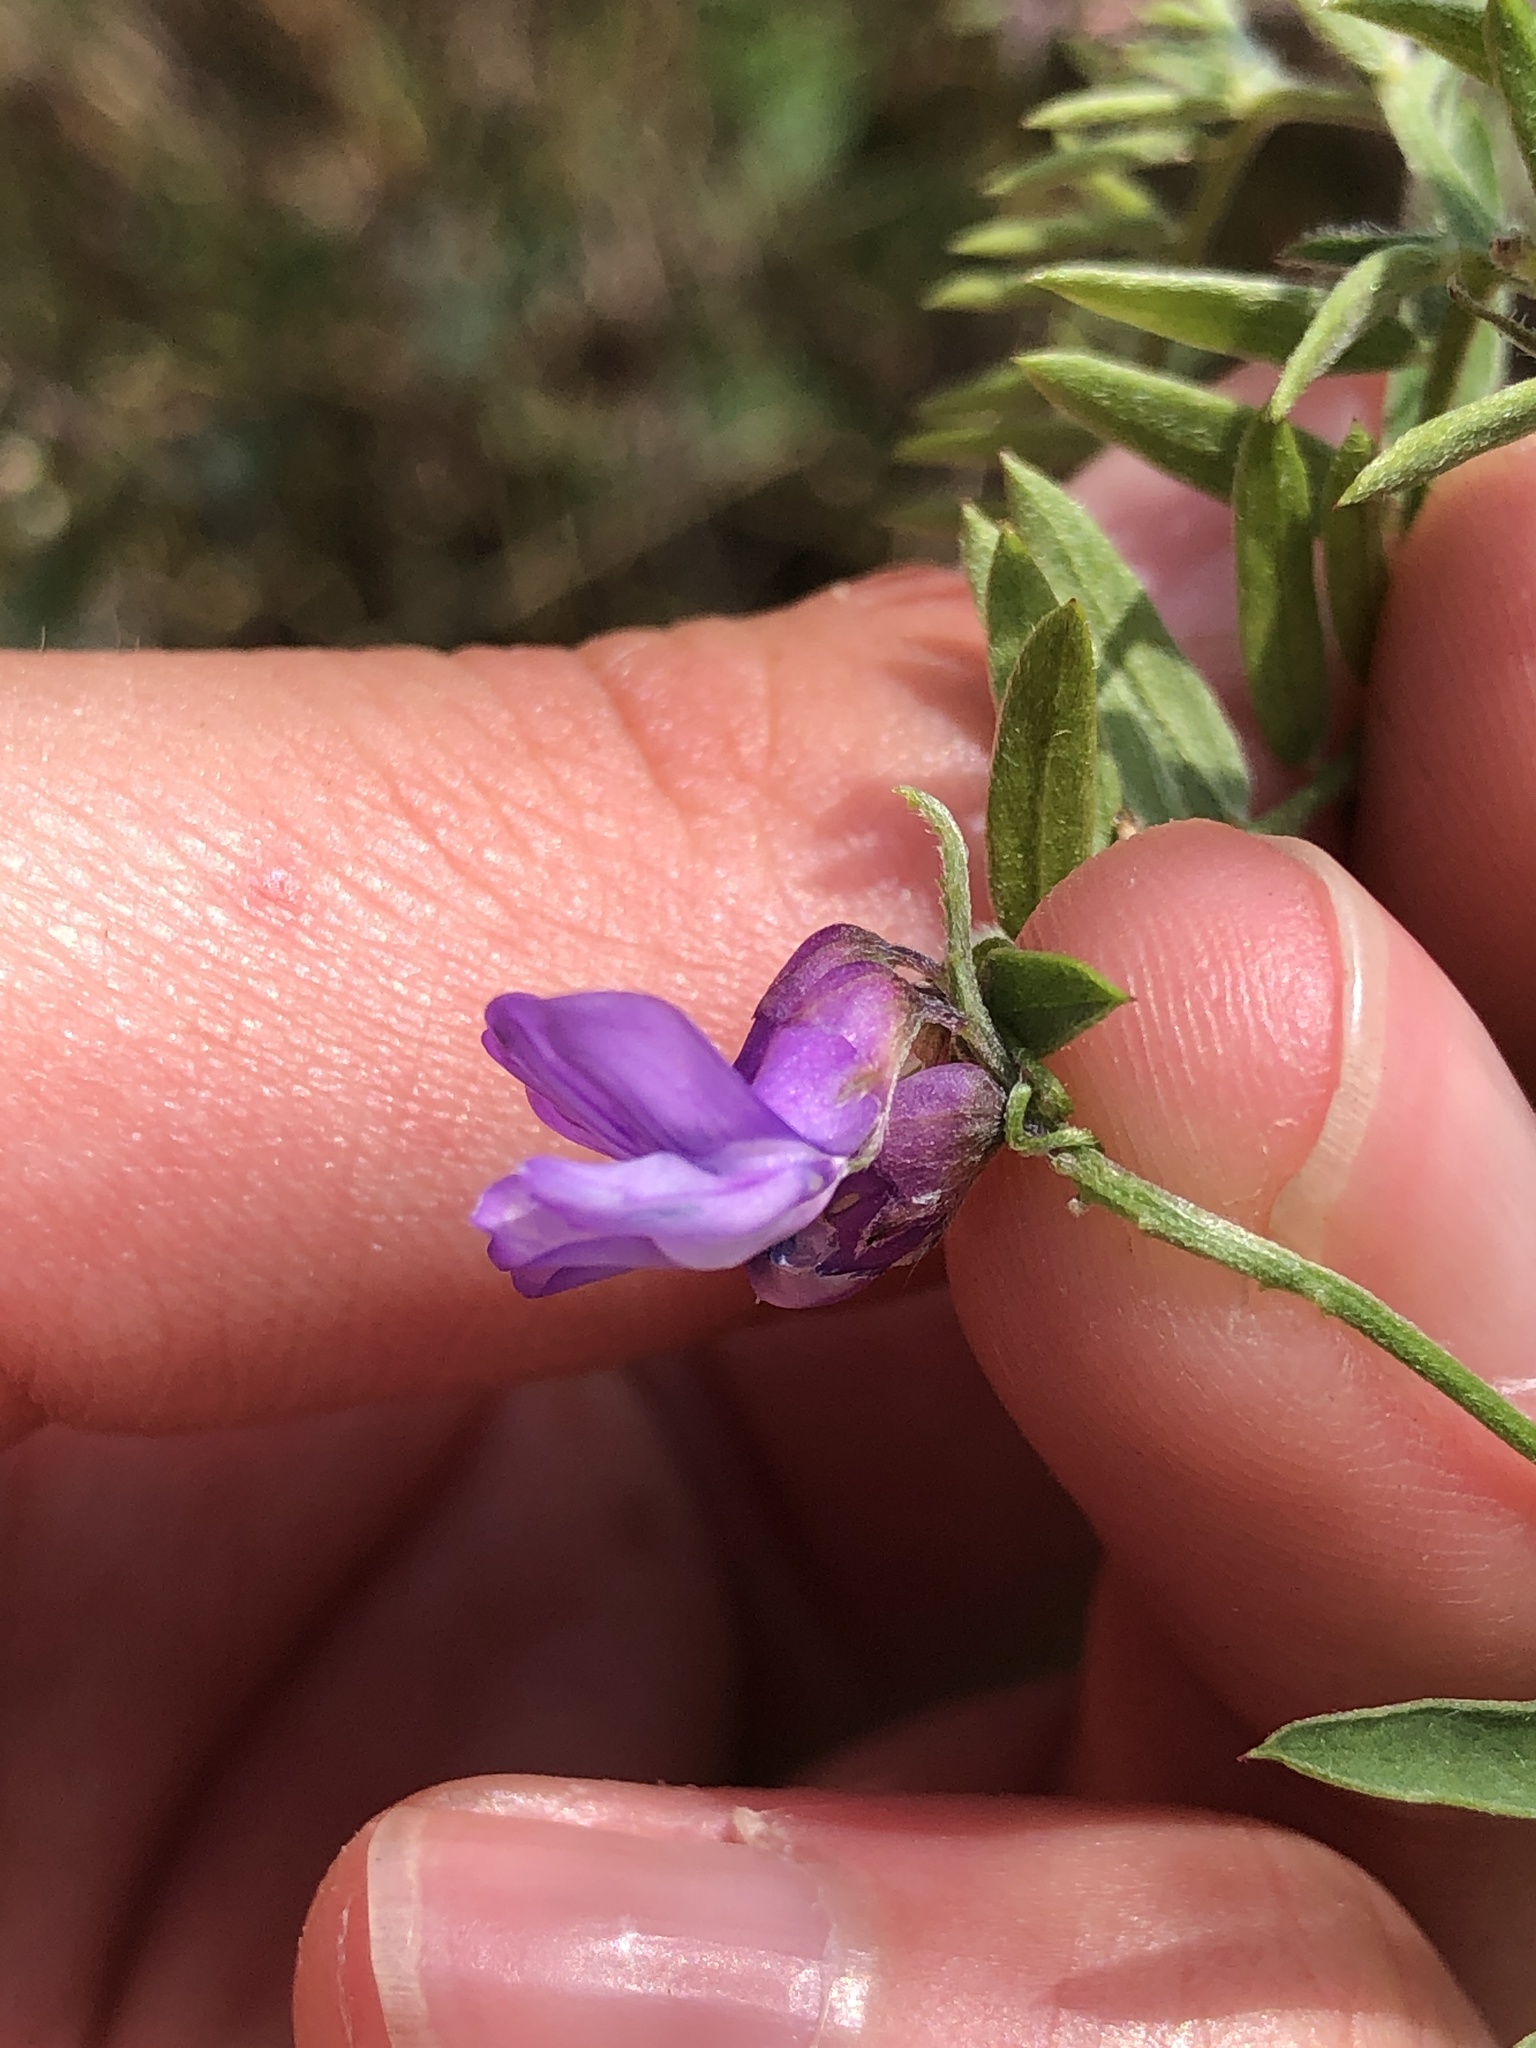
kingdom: Plantae
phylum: Tracheophyta
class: Magnoliopsida
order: Fabales
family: Fabaceae
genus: Vicia
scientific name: Vicia cracca
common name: Bird vetch
